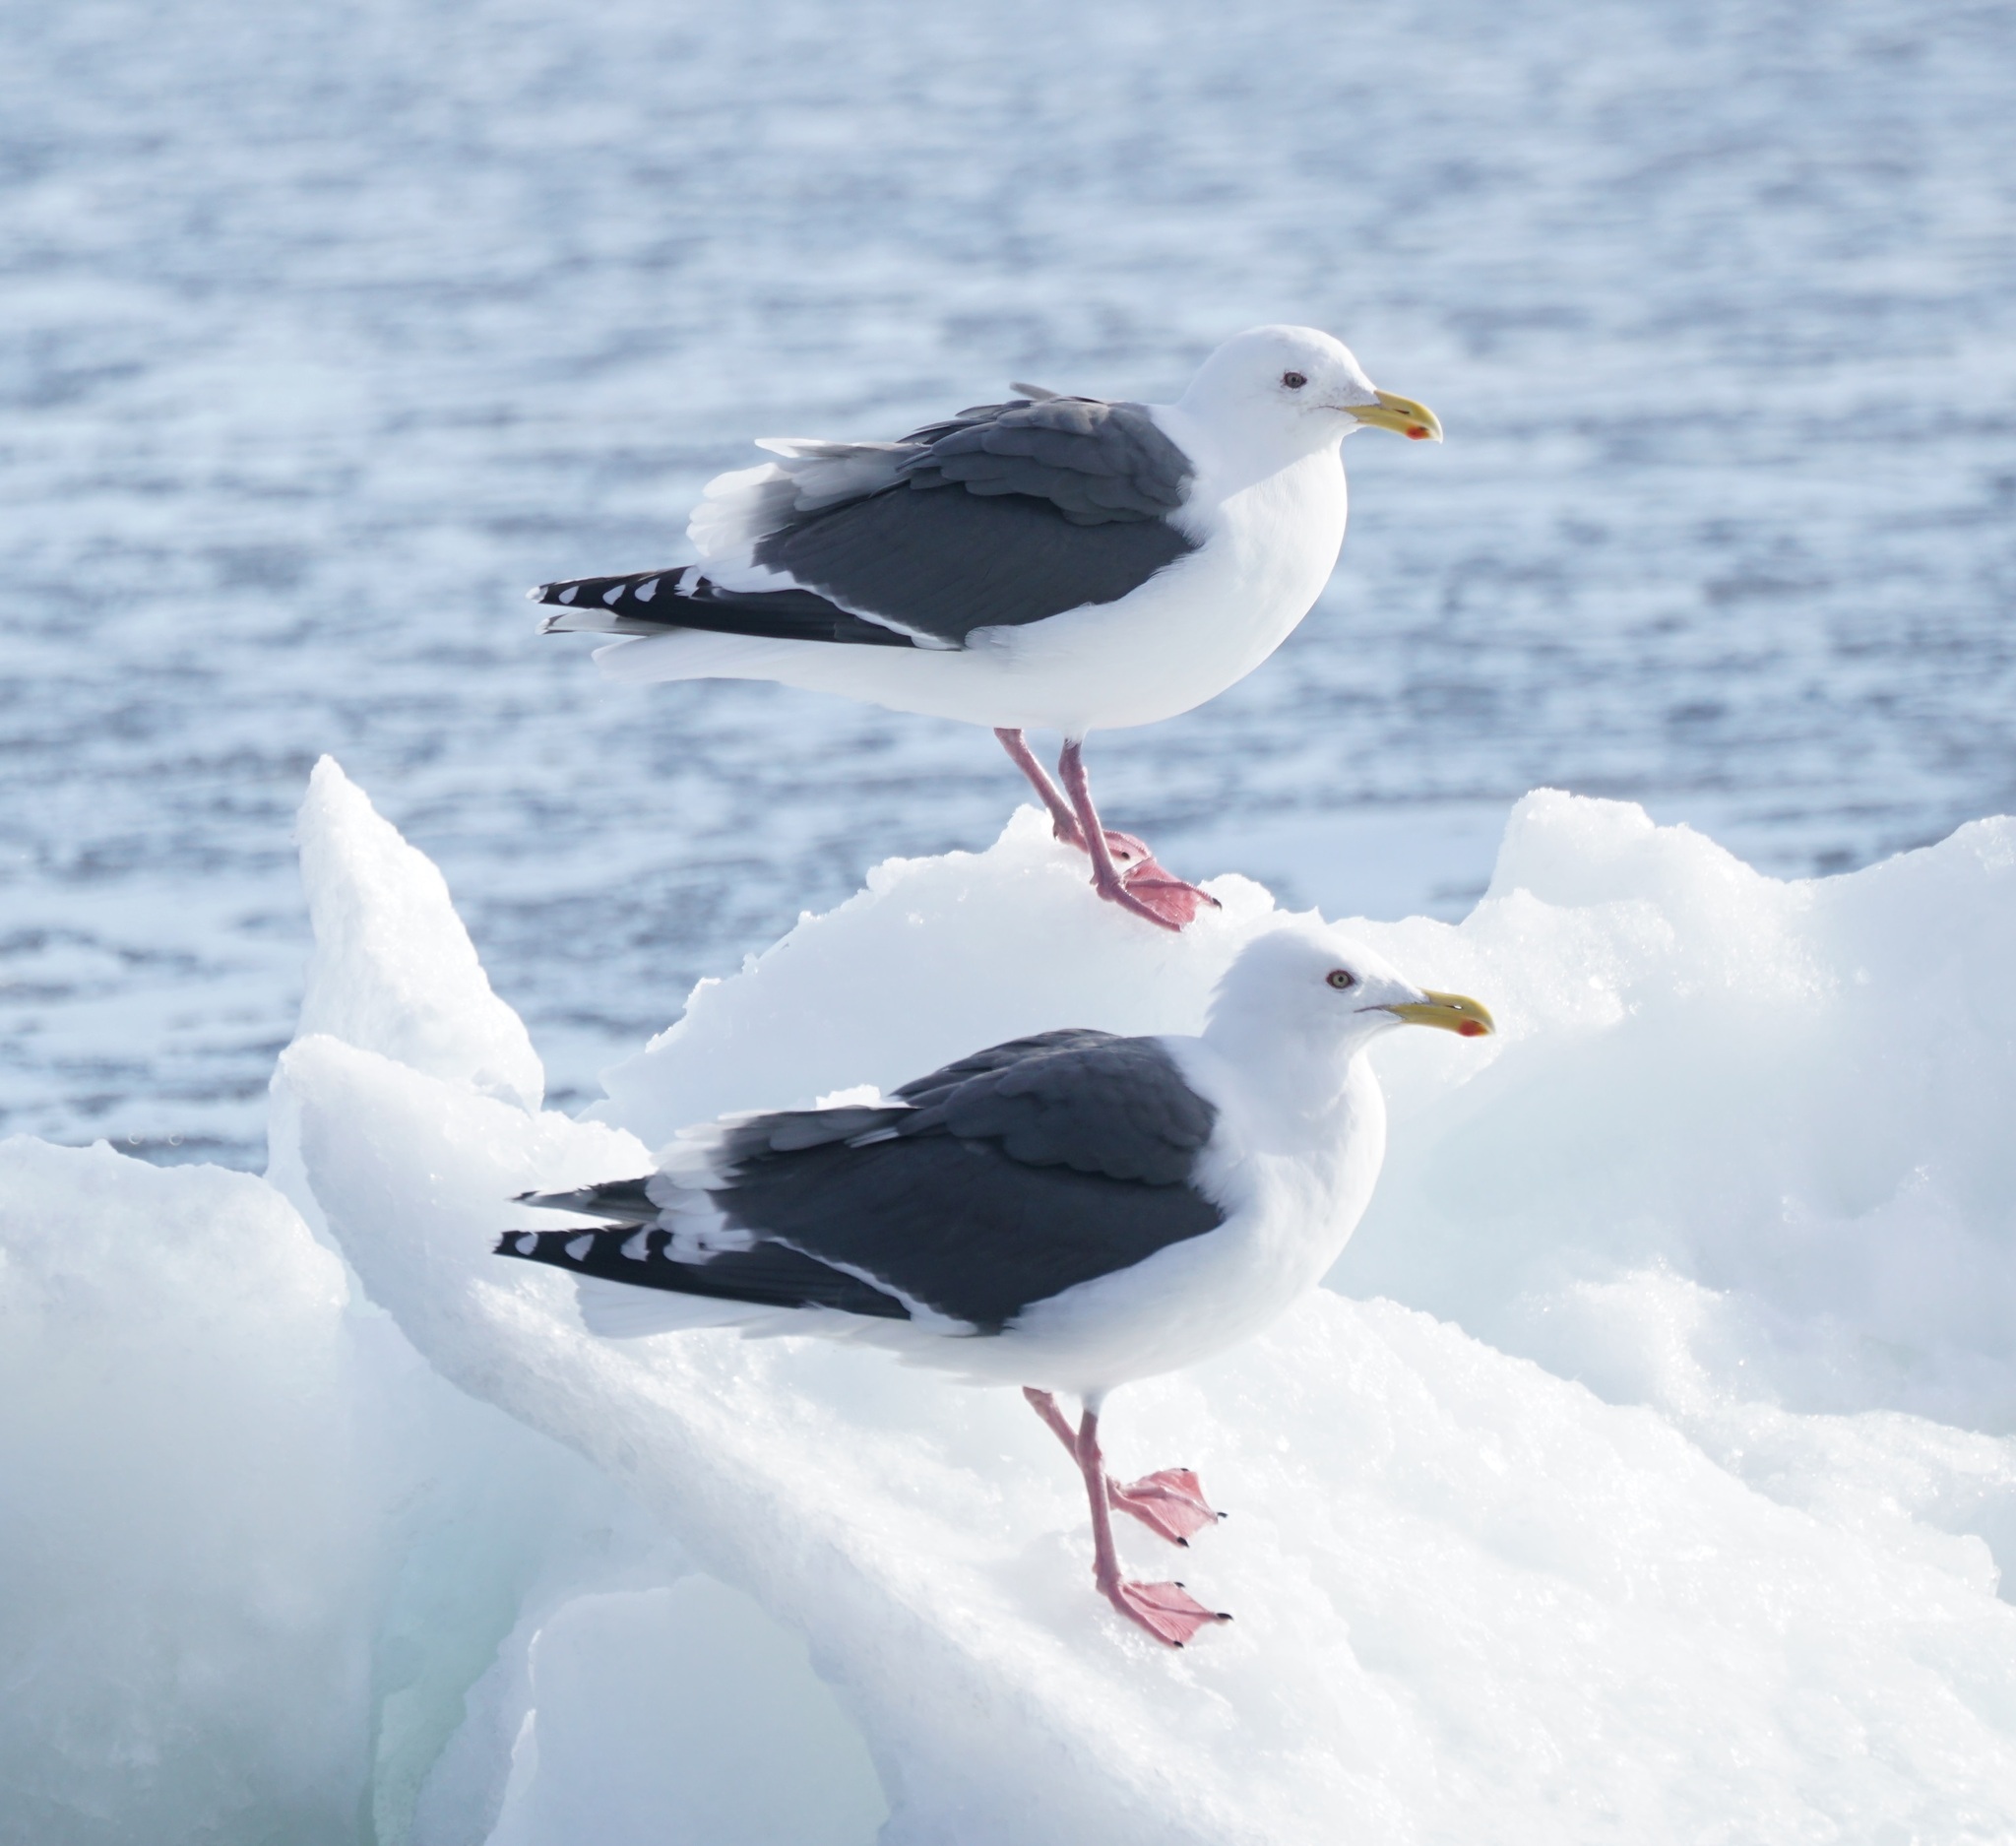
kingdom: Animalia
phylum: Chordata
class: Aves
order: Charadriiformes
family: Laridae
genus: Larus
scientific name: Larus schistisagus
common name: Slaty-backed gull
